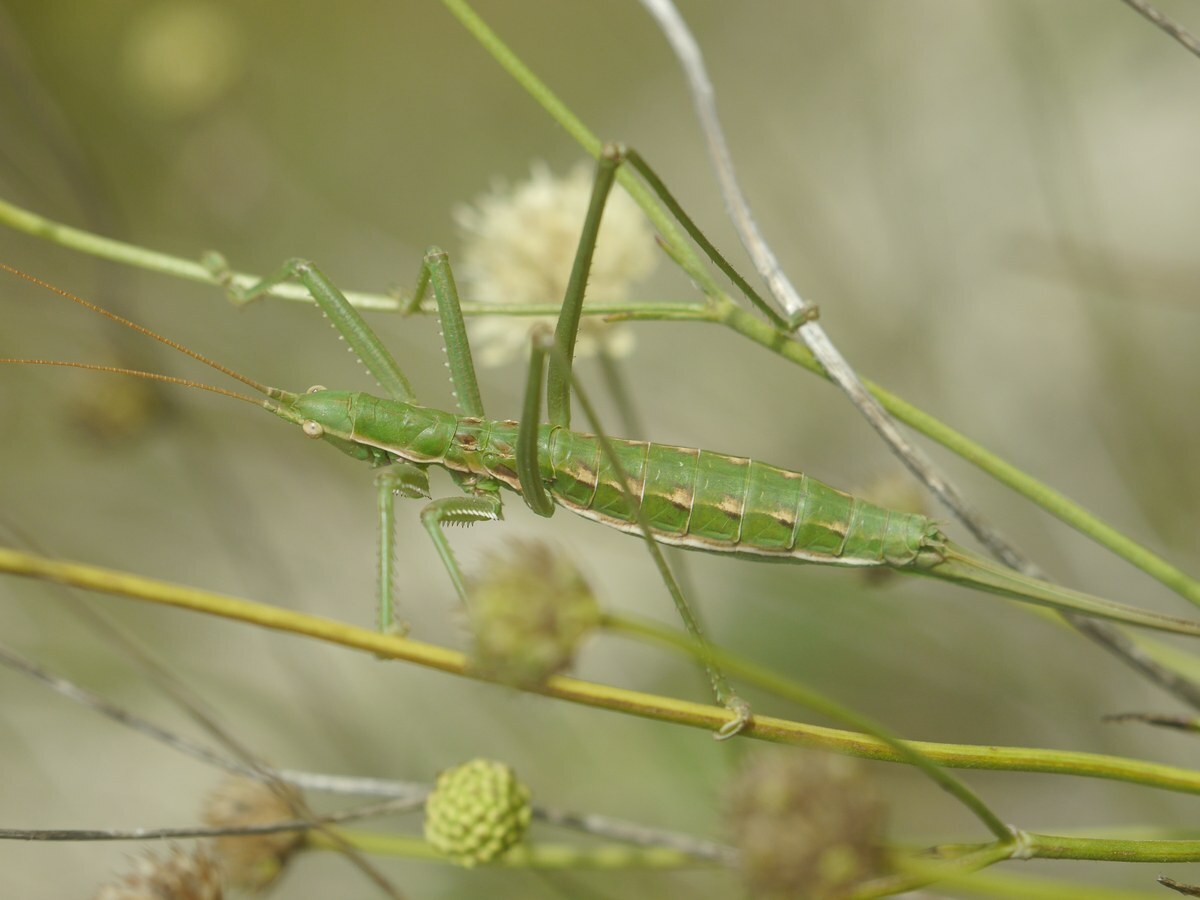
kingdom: Animalia
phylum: Arthropoda
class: Insecta
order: Orthoptera
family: Tettigoniidae
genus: Saga
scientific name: Saga pedo
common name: Common predatory bush-cricket
